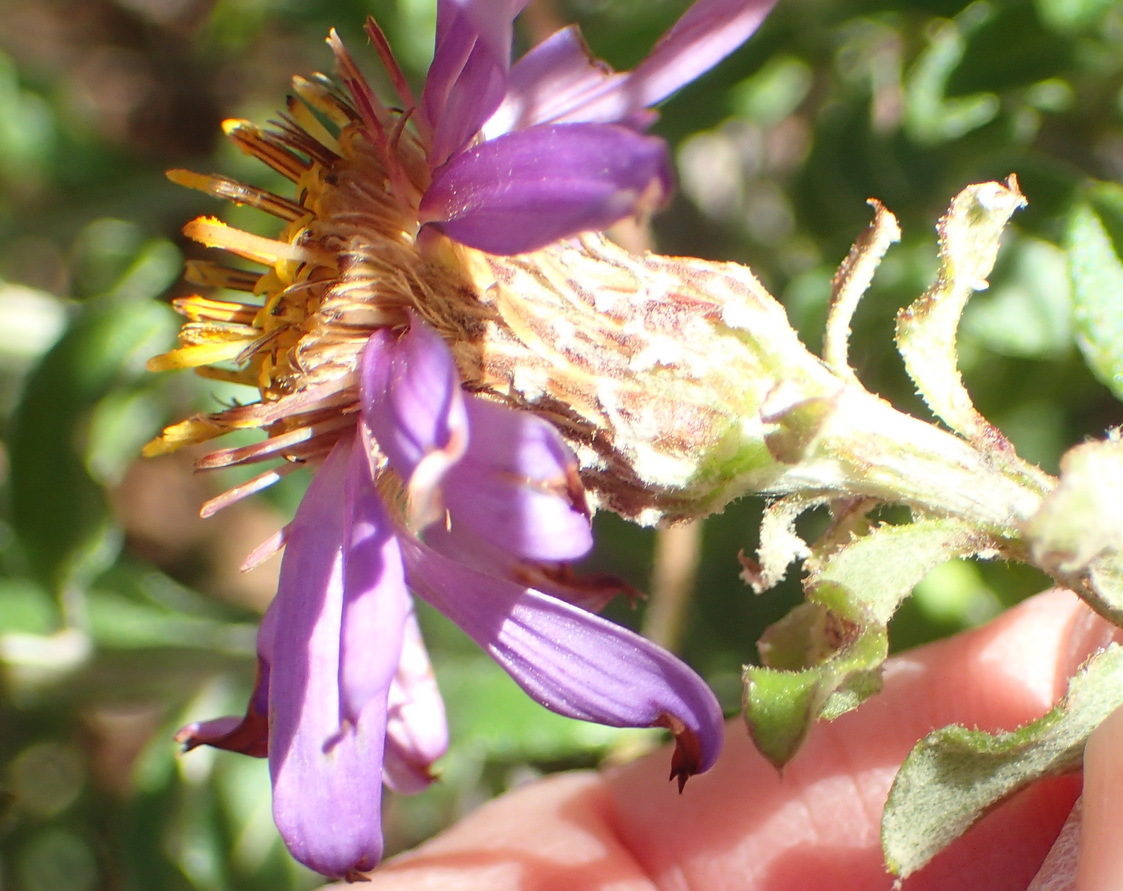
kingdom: Plantae
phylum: Tracheophyta
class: Magnoliopsida
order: Asterales
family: Asteraceae
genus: Printzia
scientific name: Printzia polifolia
